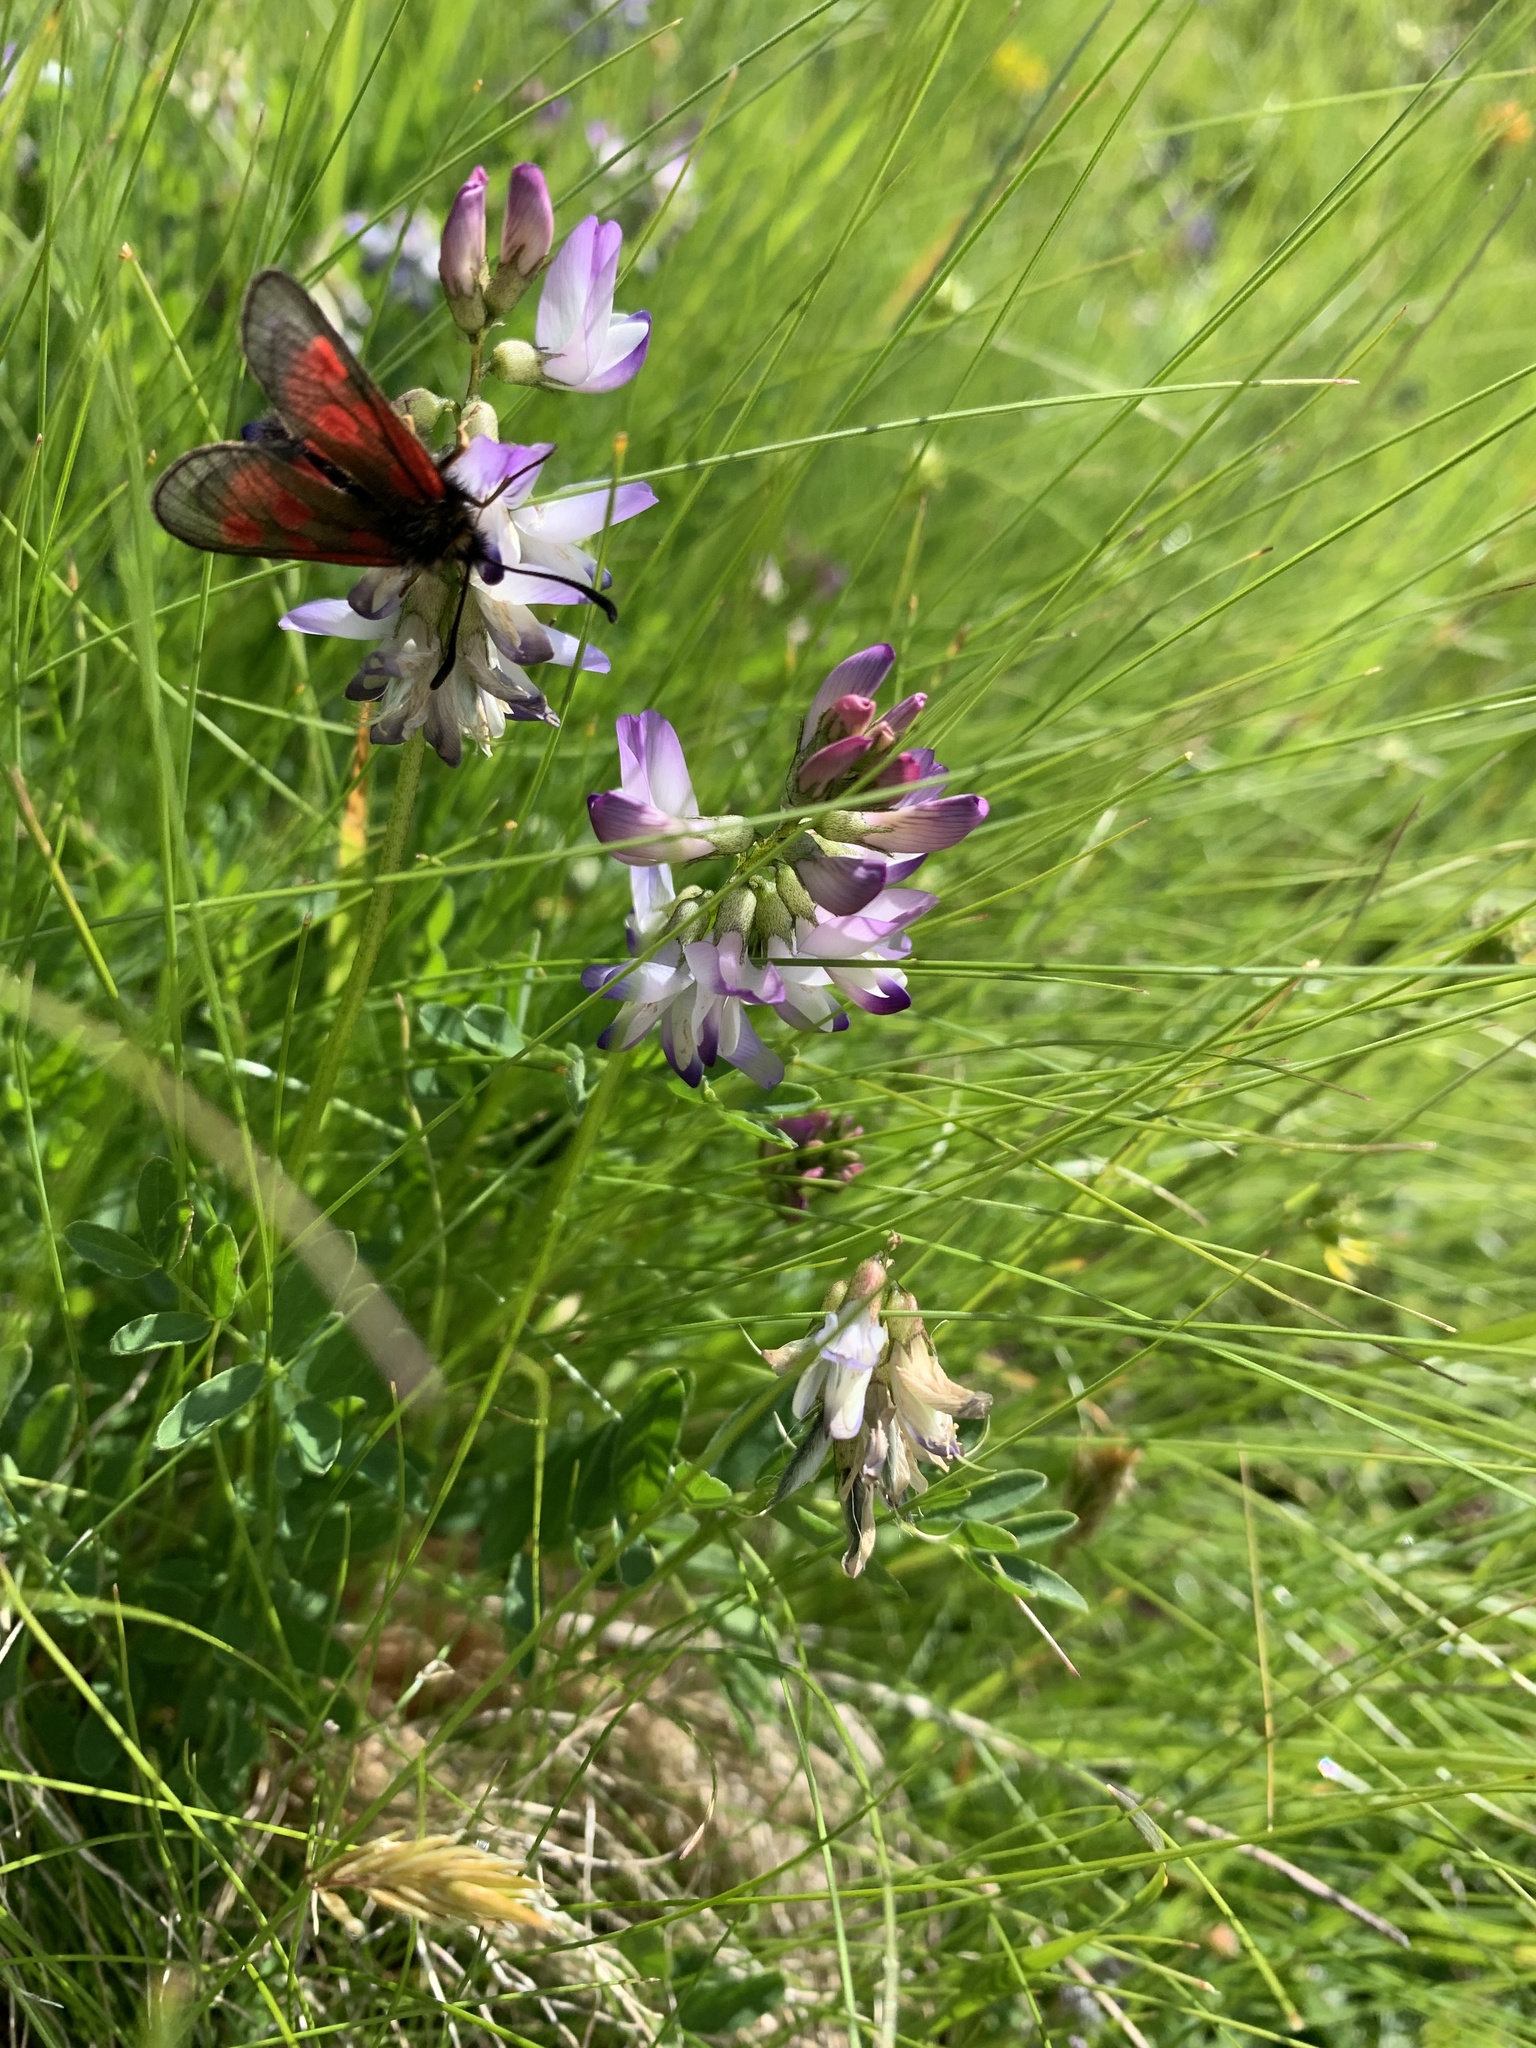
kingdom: Animalia
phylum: Arthropoda
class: Insecta
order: Lepidoptera
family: Zygaenidae
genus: Zygaena
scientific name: Zygaena exulans
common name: Scotch burnet
